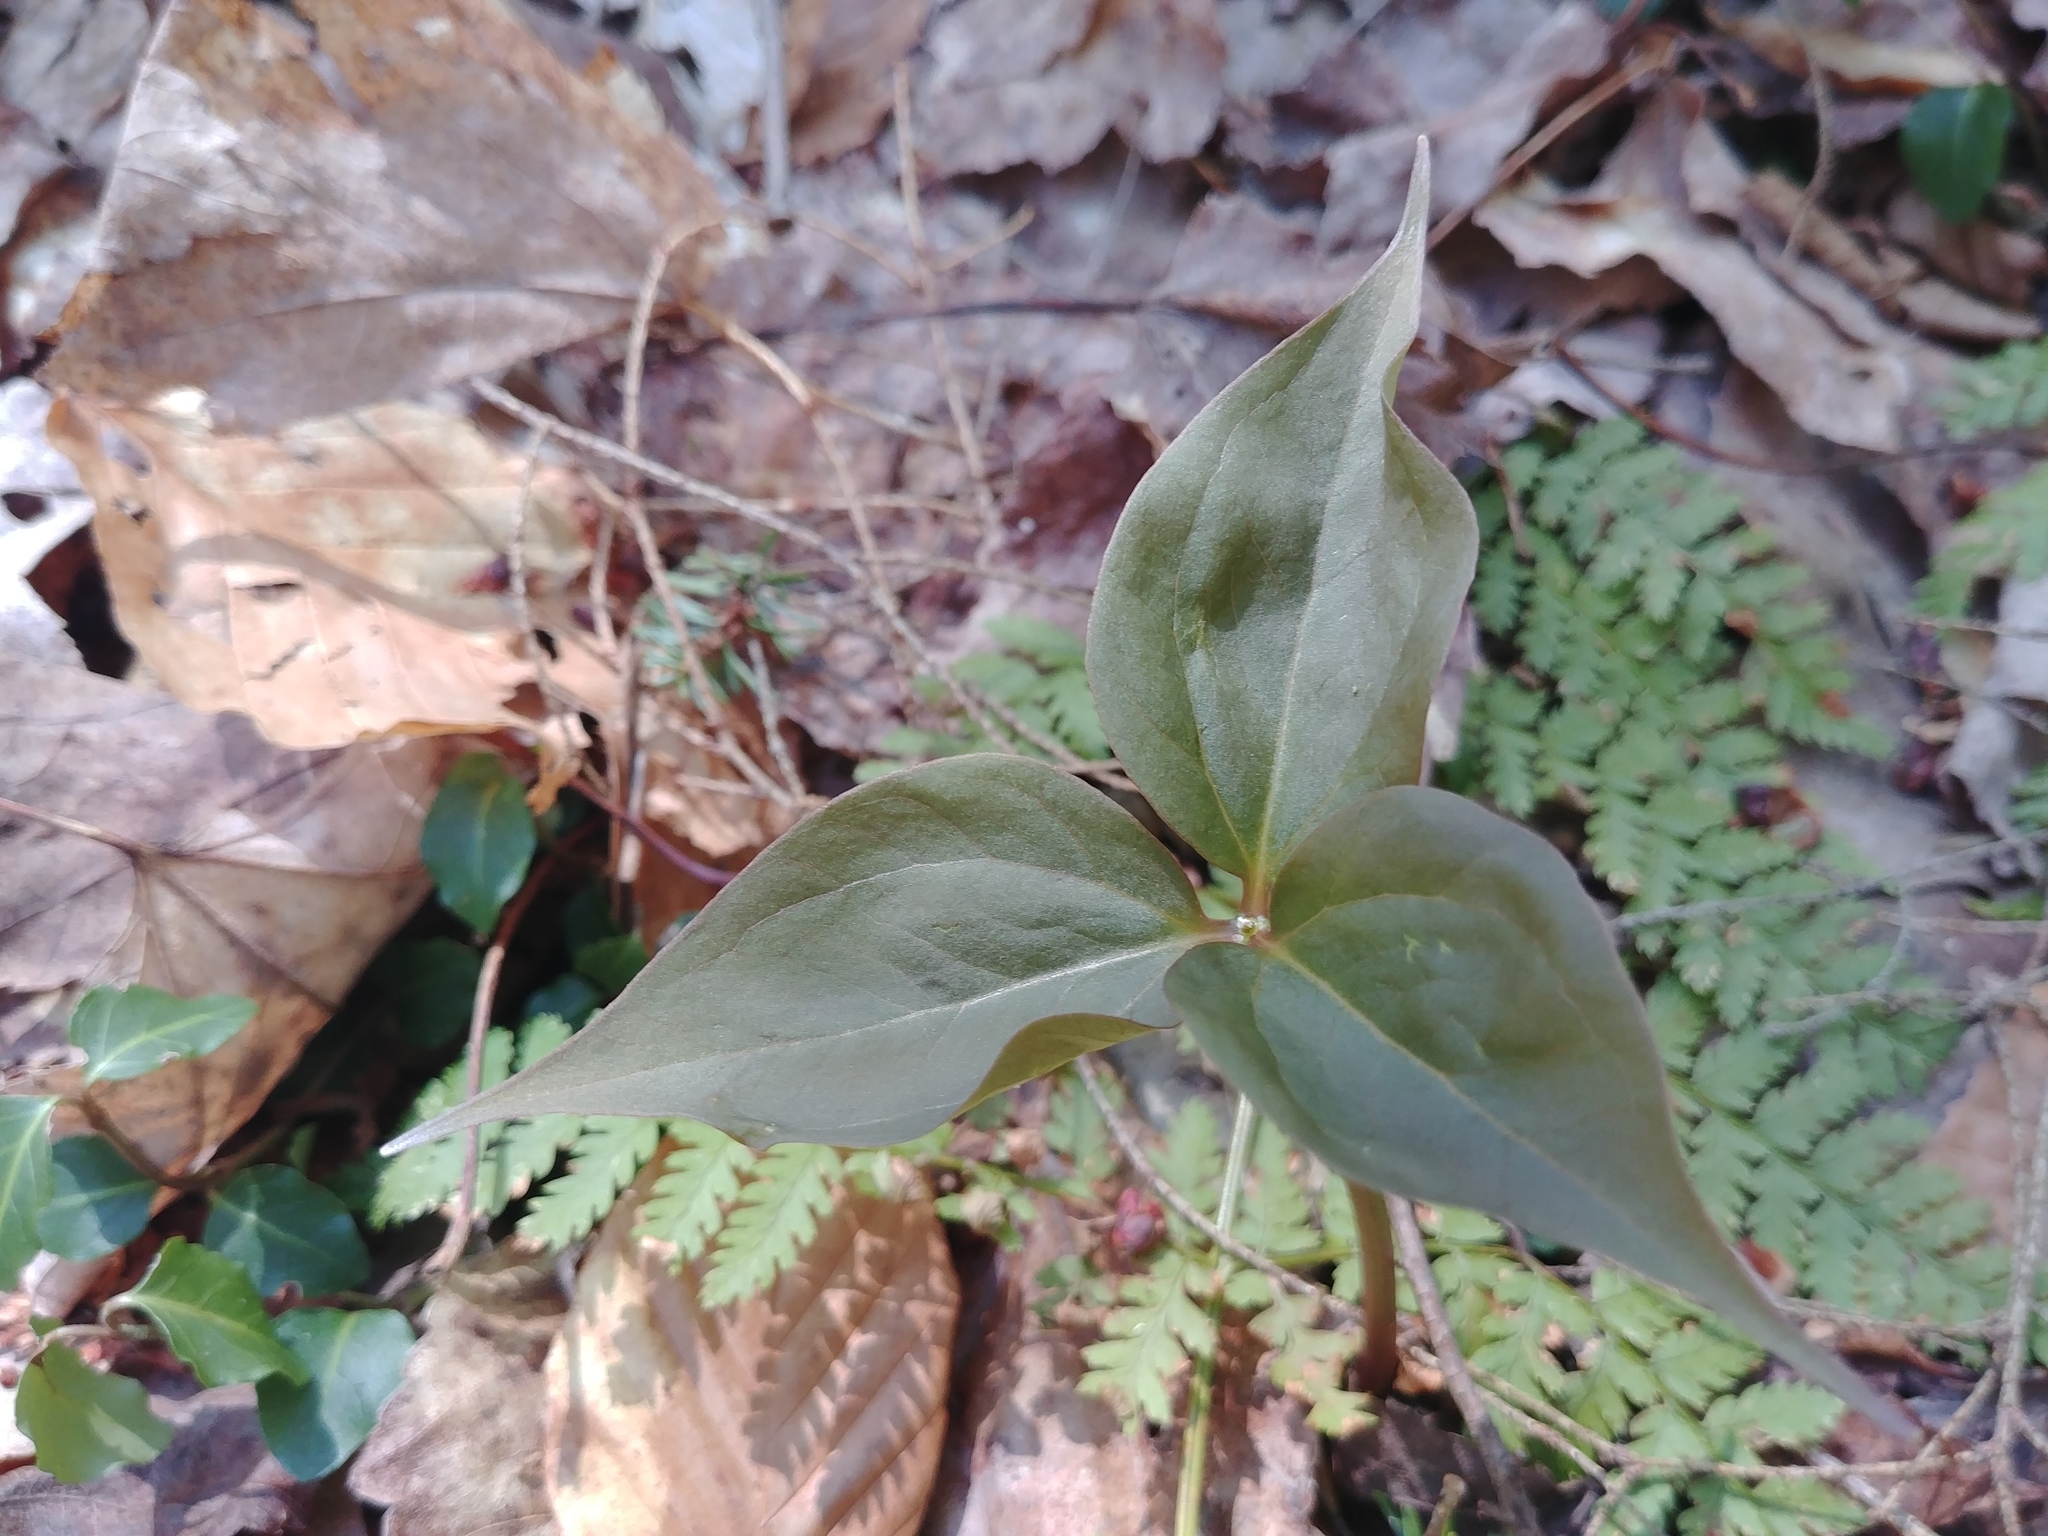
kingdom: Plantae
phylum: Tracheophyta
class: Liliopsida
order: Liliales
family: Melanthiaceae
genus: Trillium
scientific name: Trillium undulatum
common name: Paint trillium
